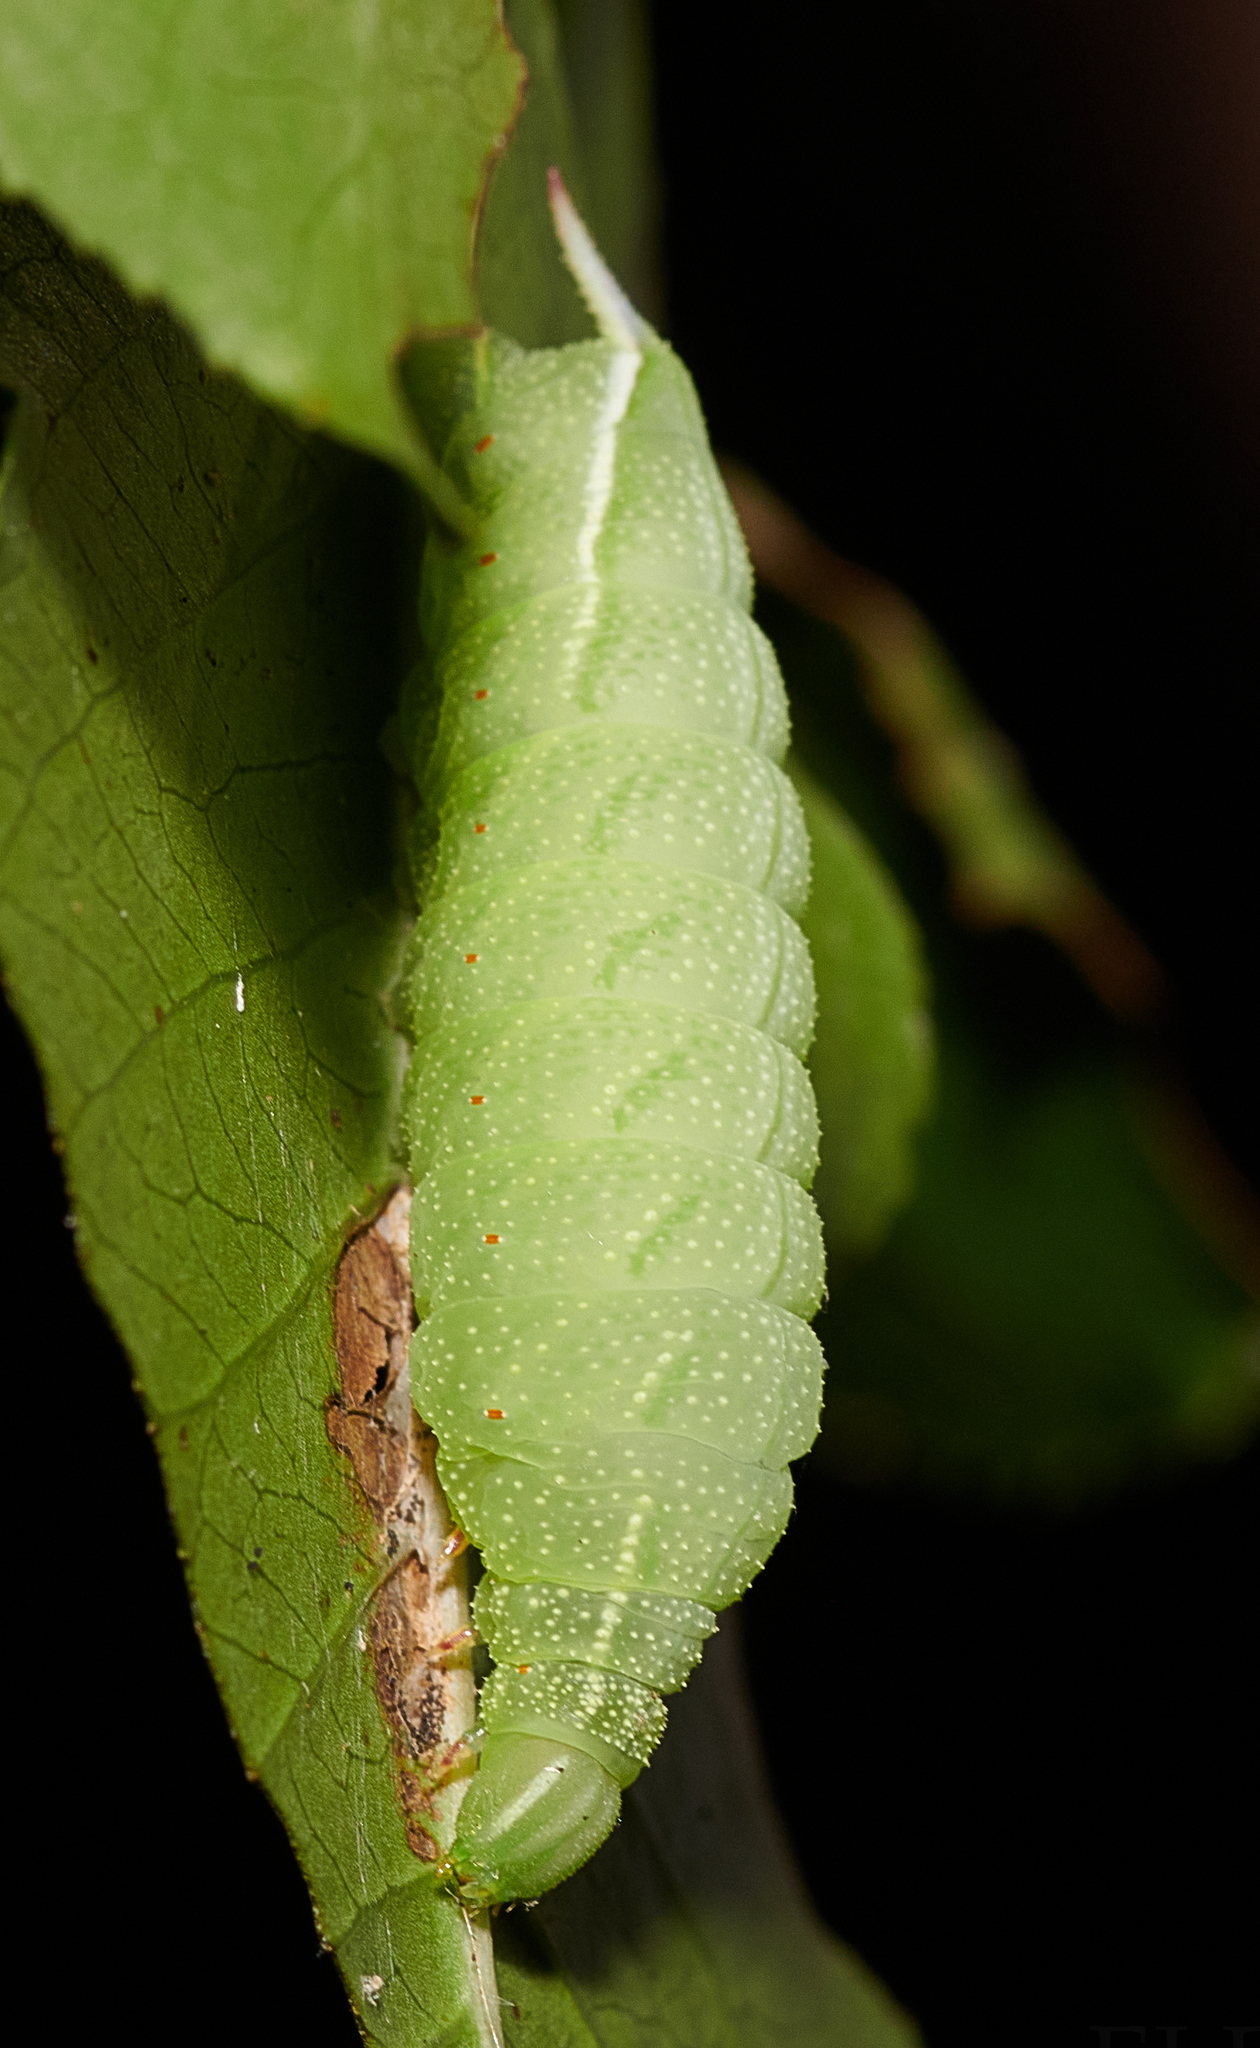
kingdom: Animalia
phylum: Arthropoda
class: Insecta
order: Lepidoptera
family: Sphingidae
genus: Darapsa
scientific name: Darapsa choerilus
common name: Azalea sphinx
